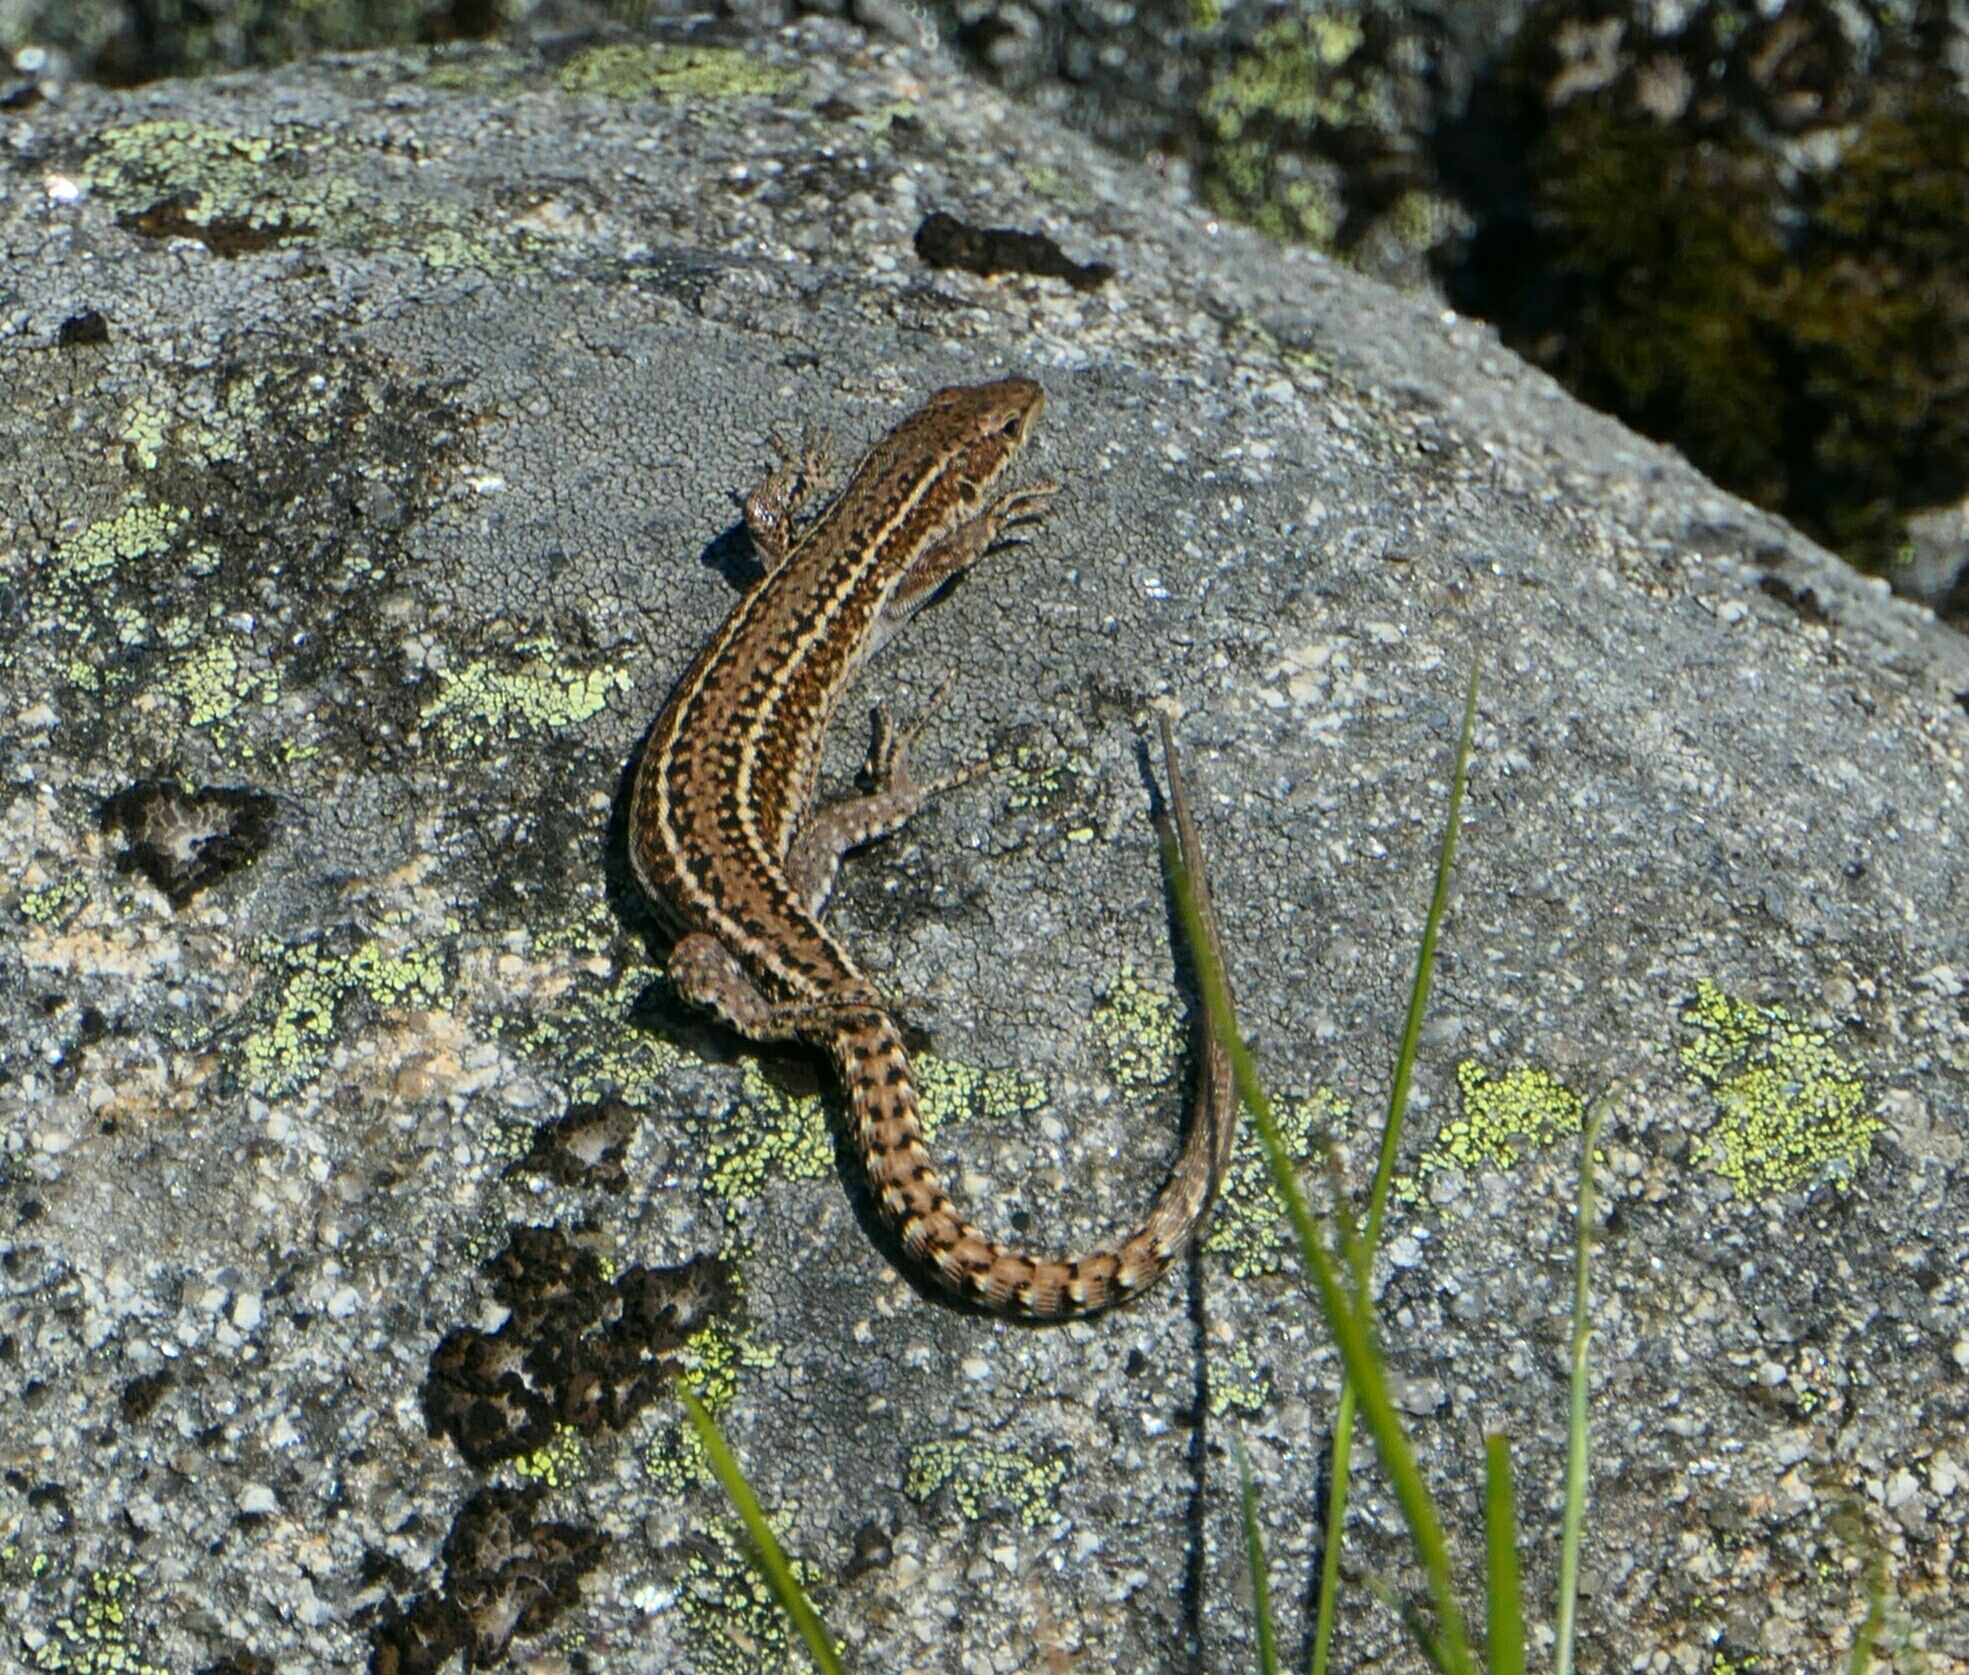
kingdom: Animalia
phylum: Chordata
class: Squamata
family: Lacertidae
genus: Podarcis
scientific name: Podarcis bocagei
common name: Bocage's wall lizard
